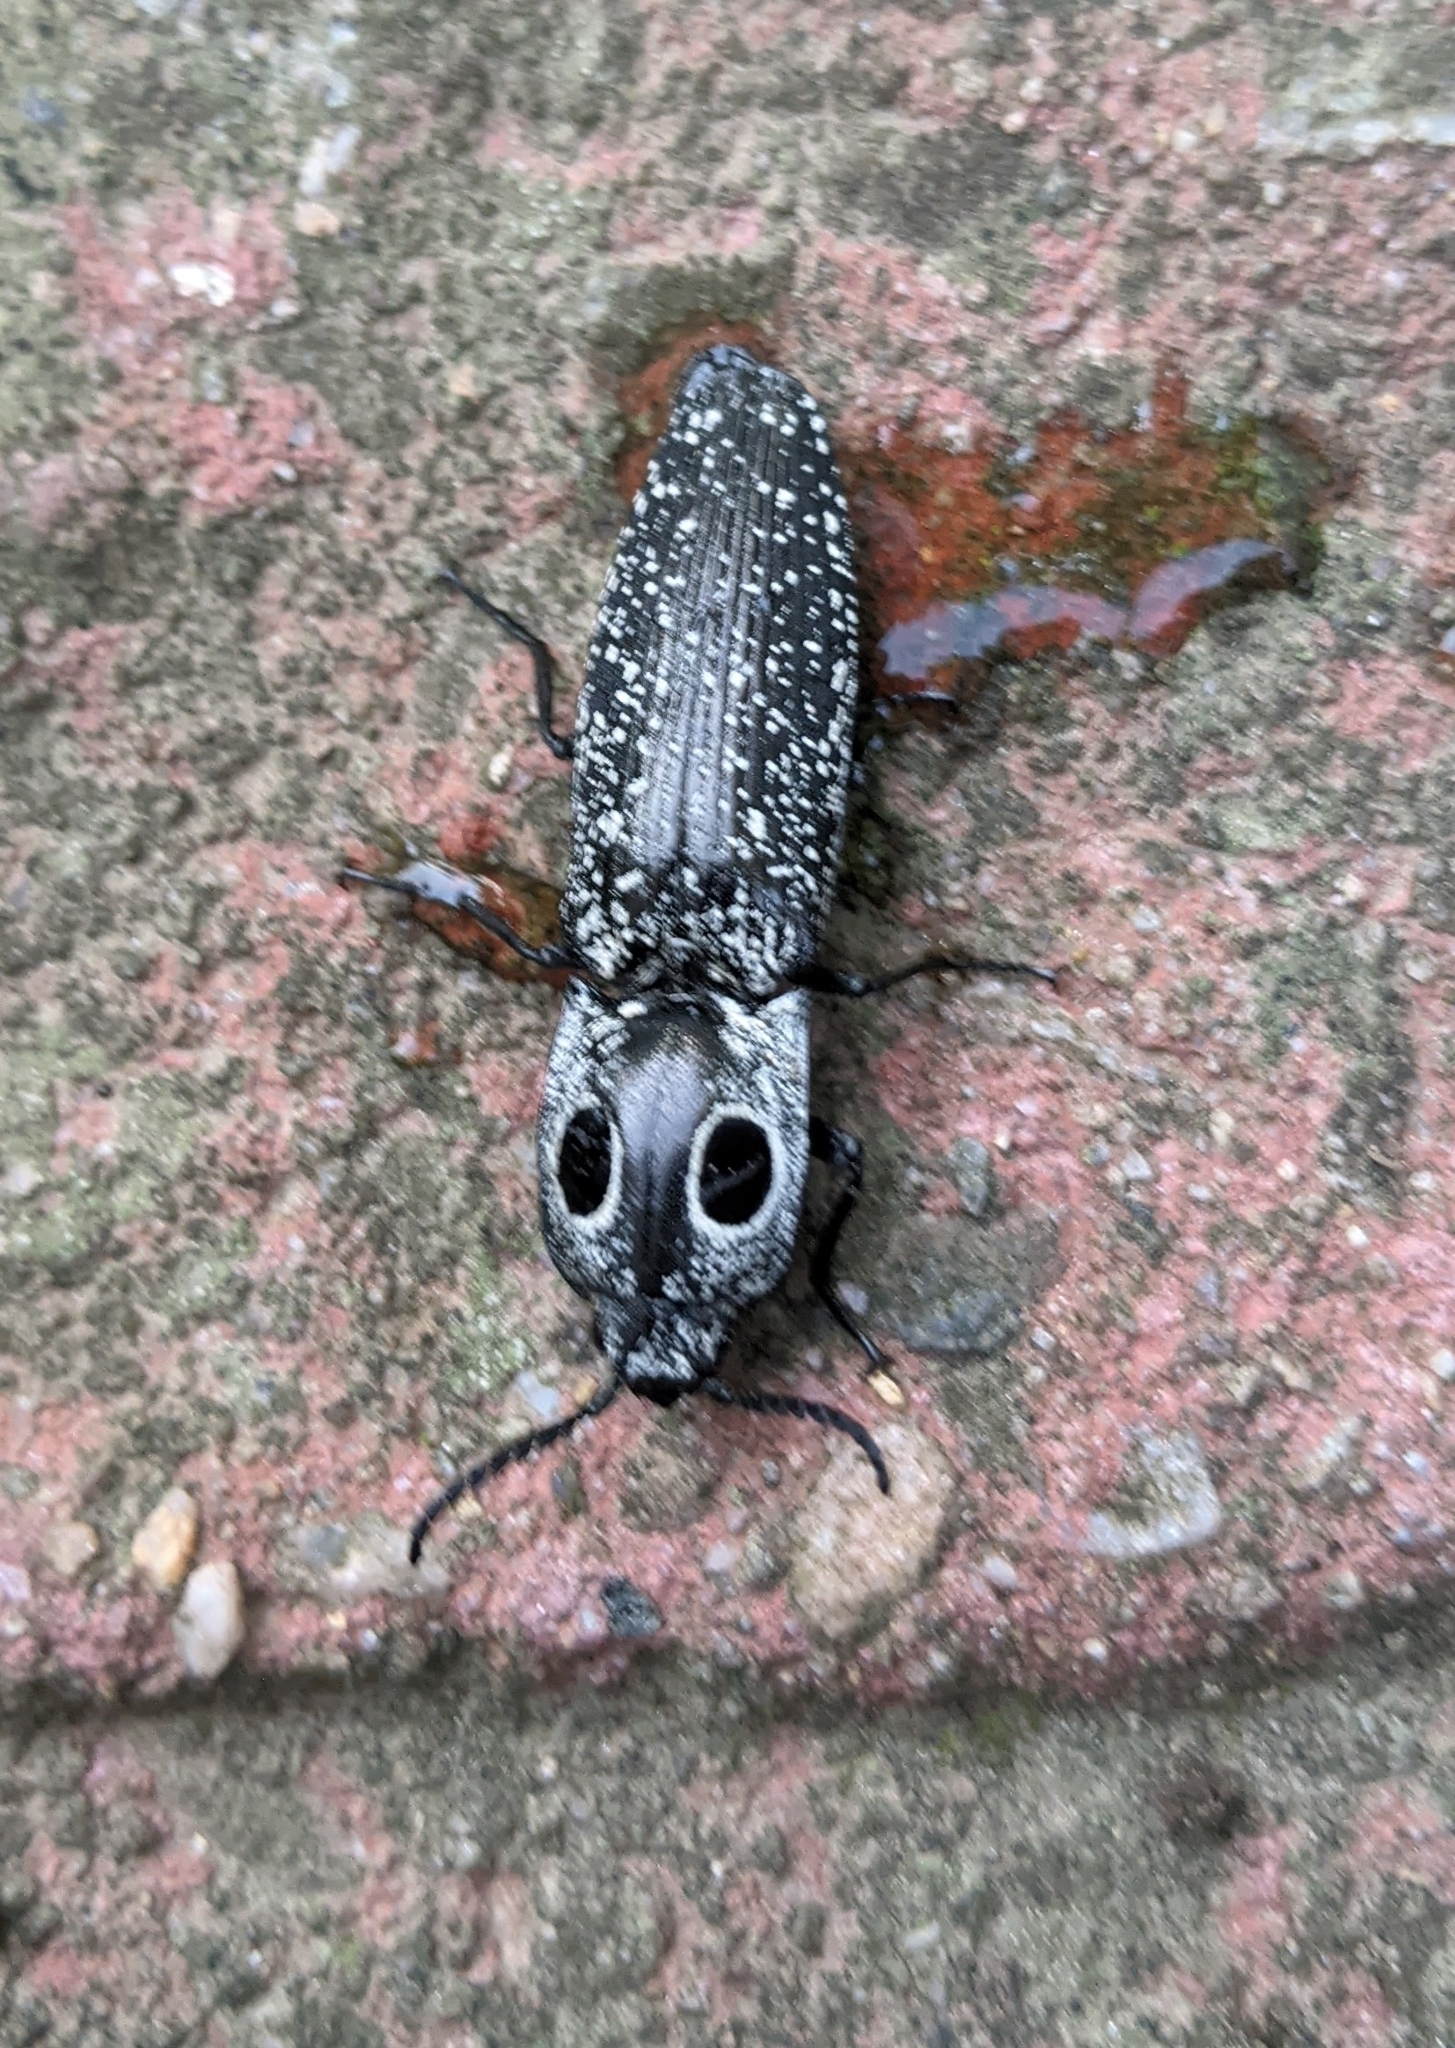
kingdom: Animalia
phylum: Arthropoda
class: Insecta
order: Coleoptera
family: Elateridae
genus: Alaus
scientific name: Alaus oculatus
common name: Eastern eyed click beetle
